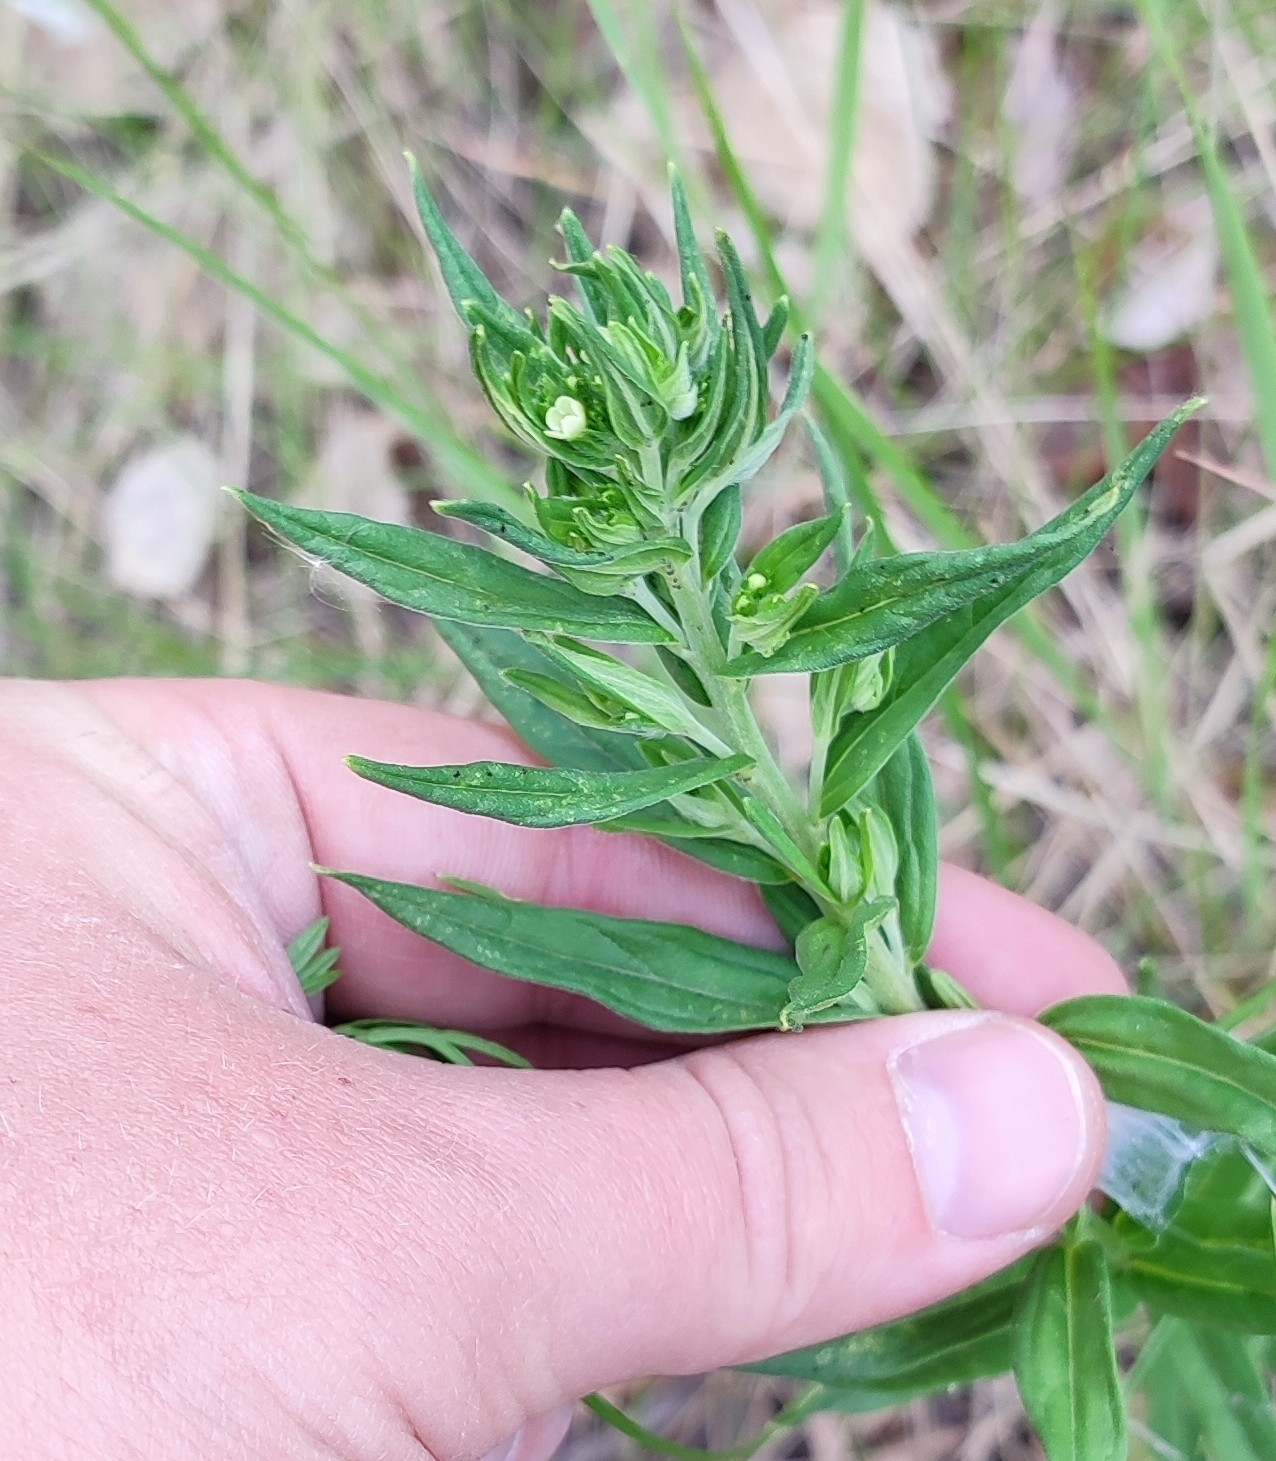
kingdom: Plantae
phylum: Tracheophyta
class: Magnoliopsida
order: Boraginales
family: Boraginaceae
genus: Lithospermum
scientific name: Lithospermum officinale
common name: Common gromwell
